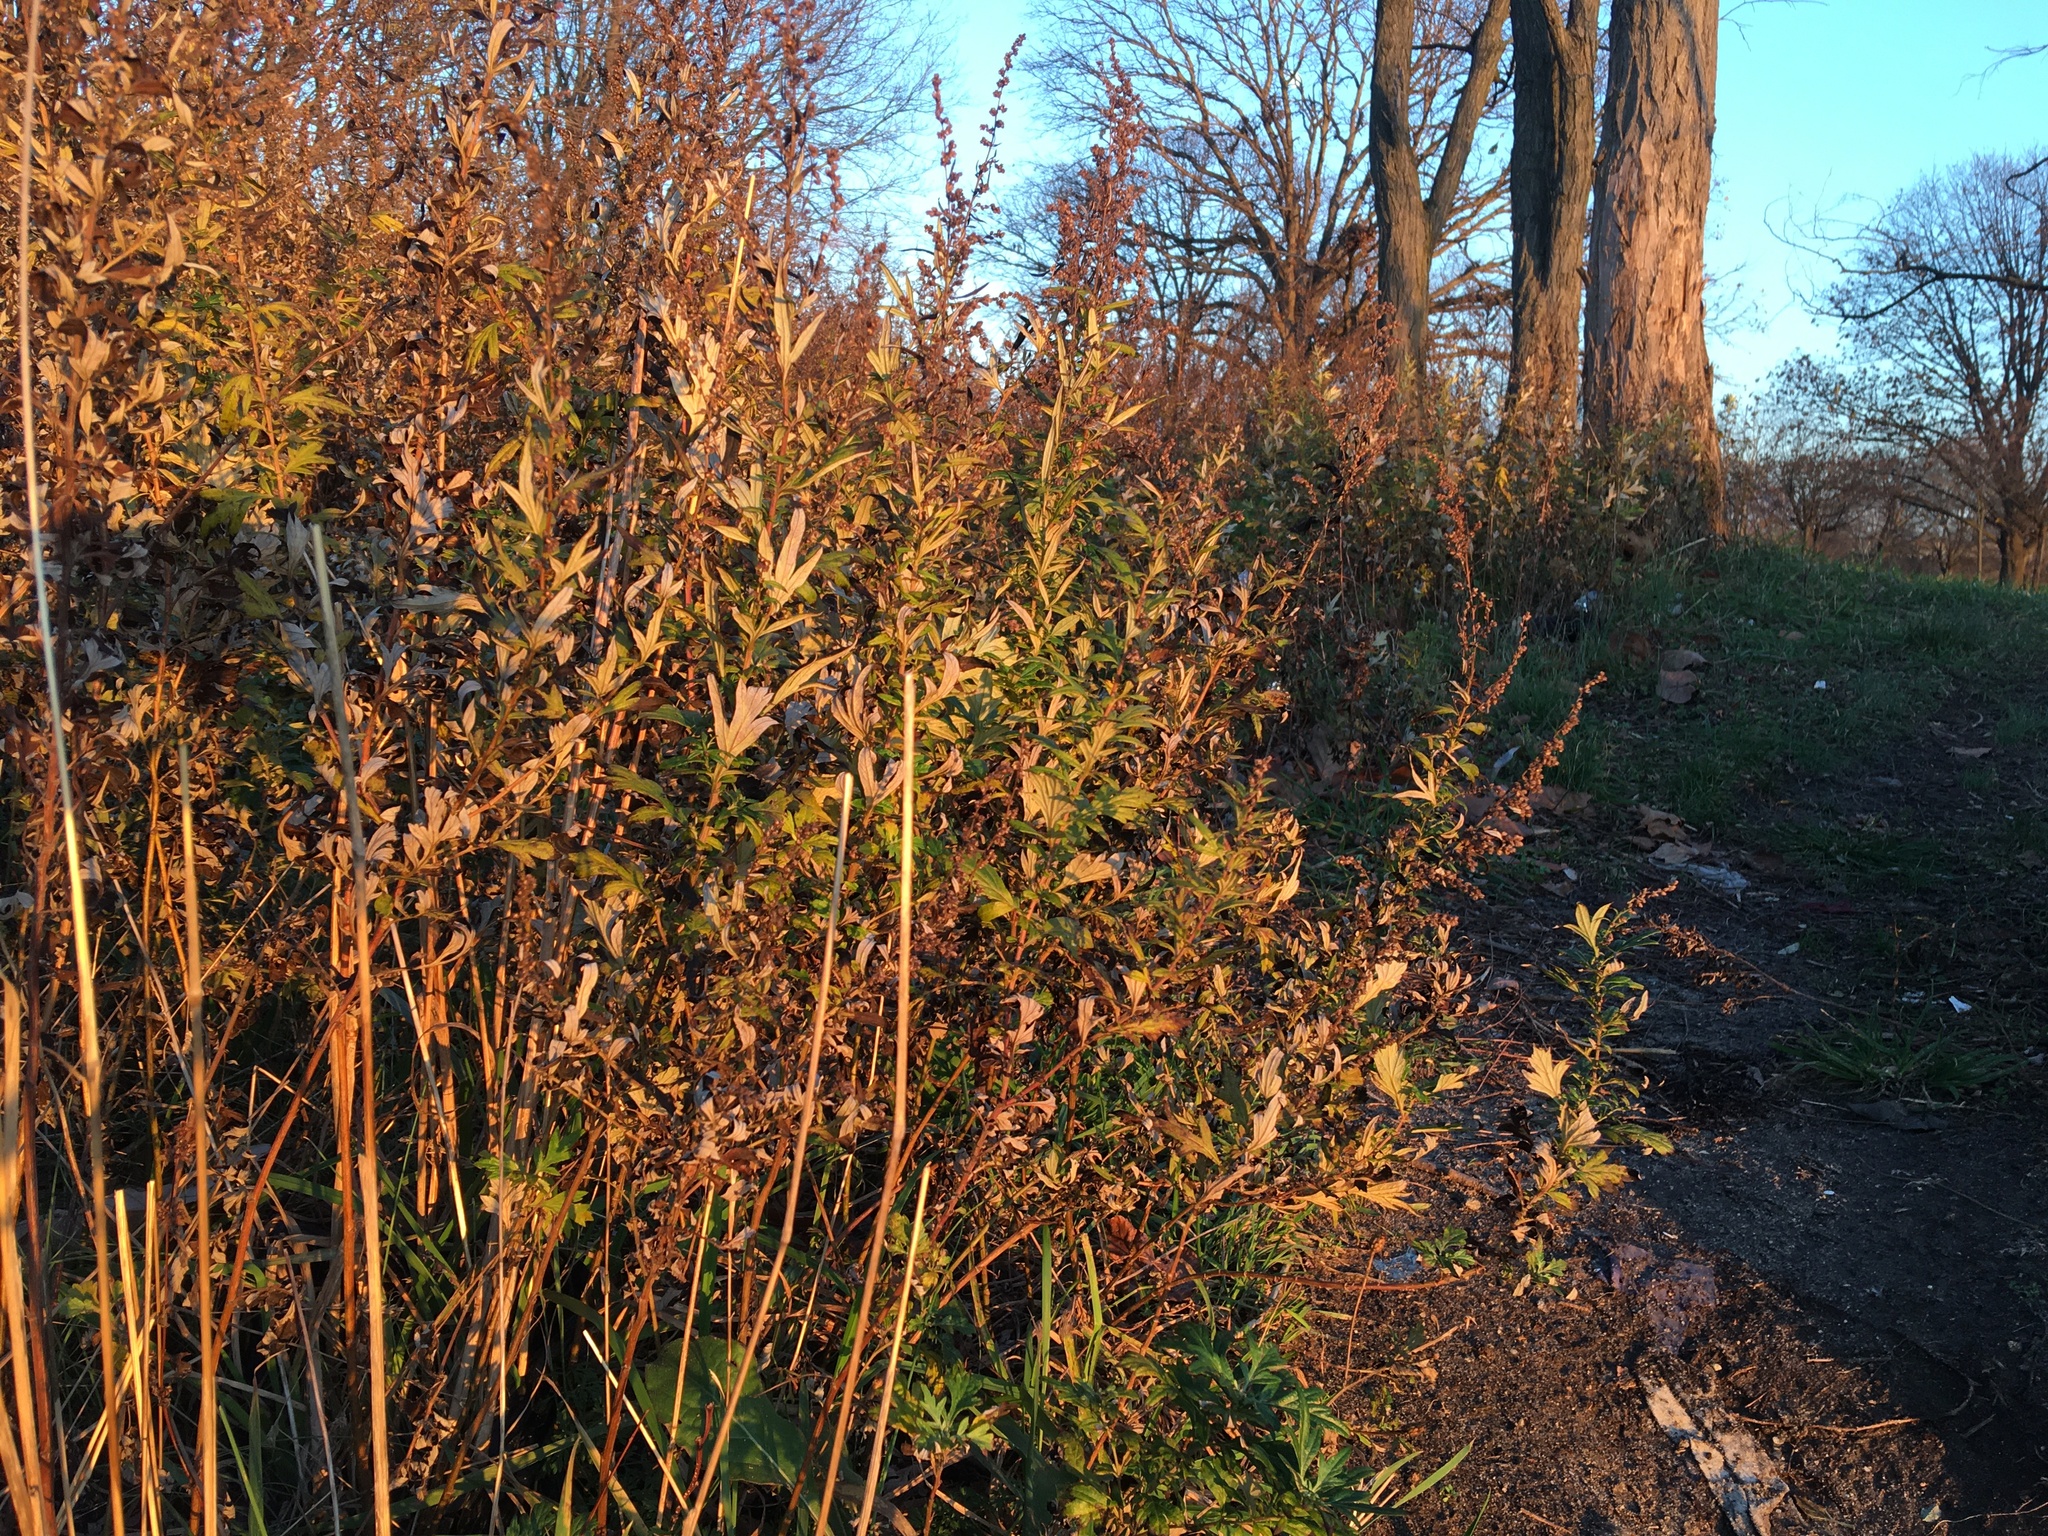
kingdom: Plantae
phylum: Tracheophyta
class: Magnoliopsida
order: Asterales
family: Asteraceae
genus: Artemisia
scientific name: Artemisia vulgaris
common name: Mugwort
